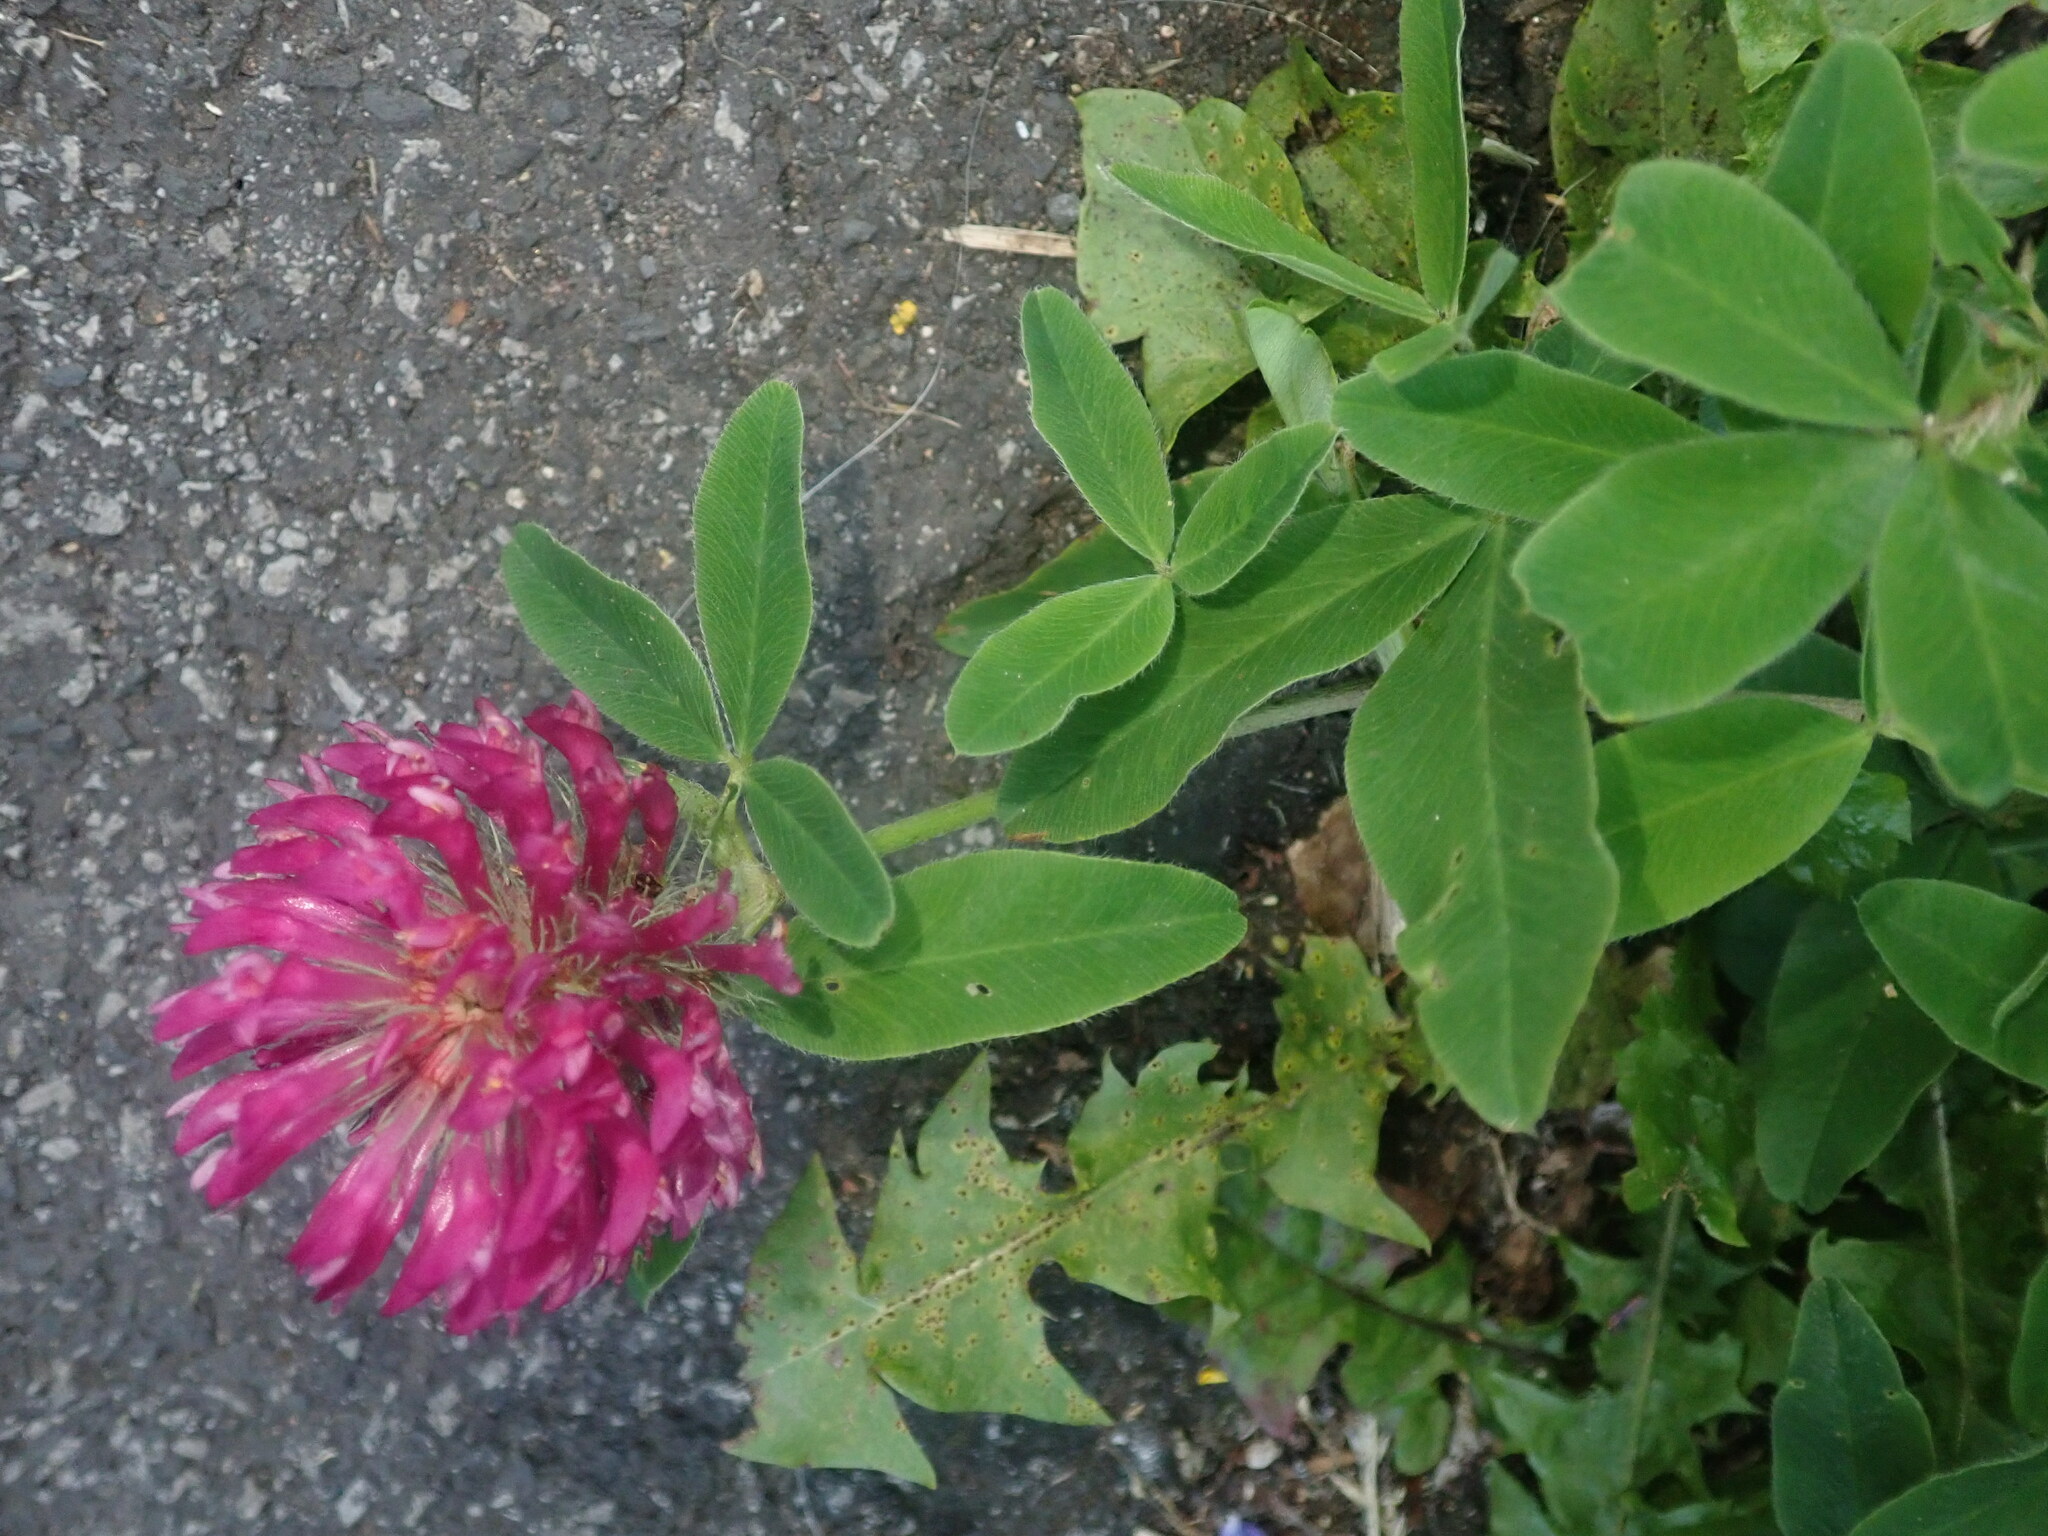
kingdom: Plantae
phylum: Tracheophyta
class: Magnoliopsida
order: Fabales
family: Fabaceae
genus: Trifolium
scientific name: Trifolium medium
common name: Zigzag clover
